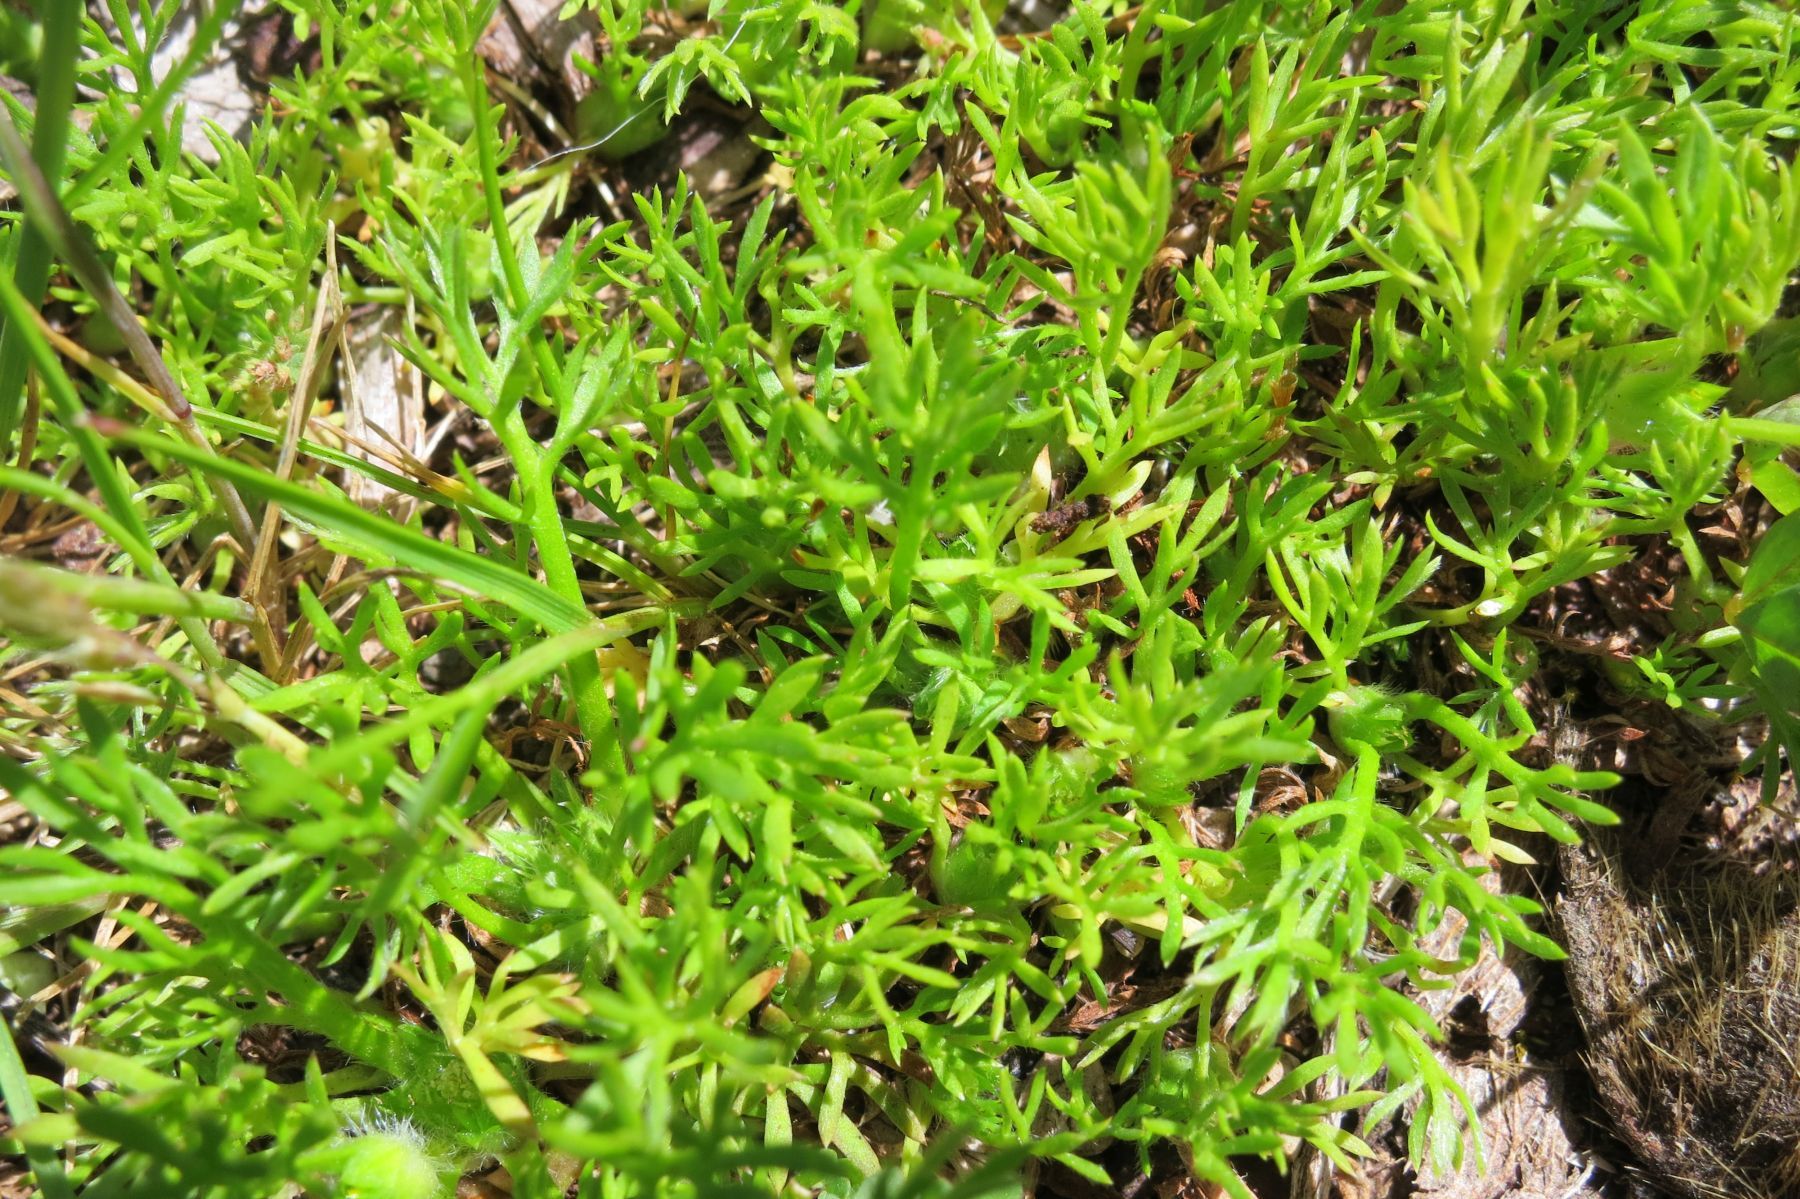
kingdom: Plantae
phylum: Tracheophyta
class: Magnoliopsida
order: Asterales
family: Asteraceae
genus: Soliva
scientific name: Soliva sessilis
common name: Field burrweed
